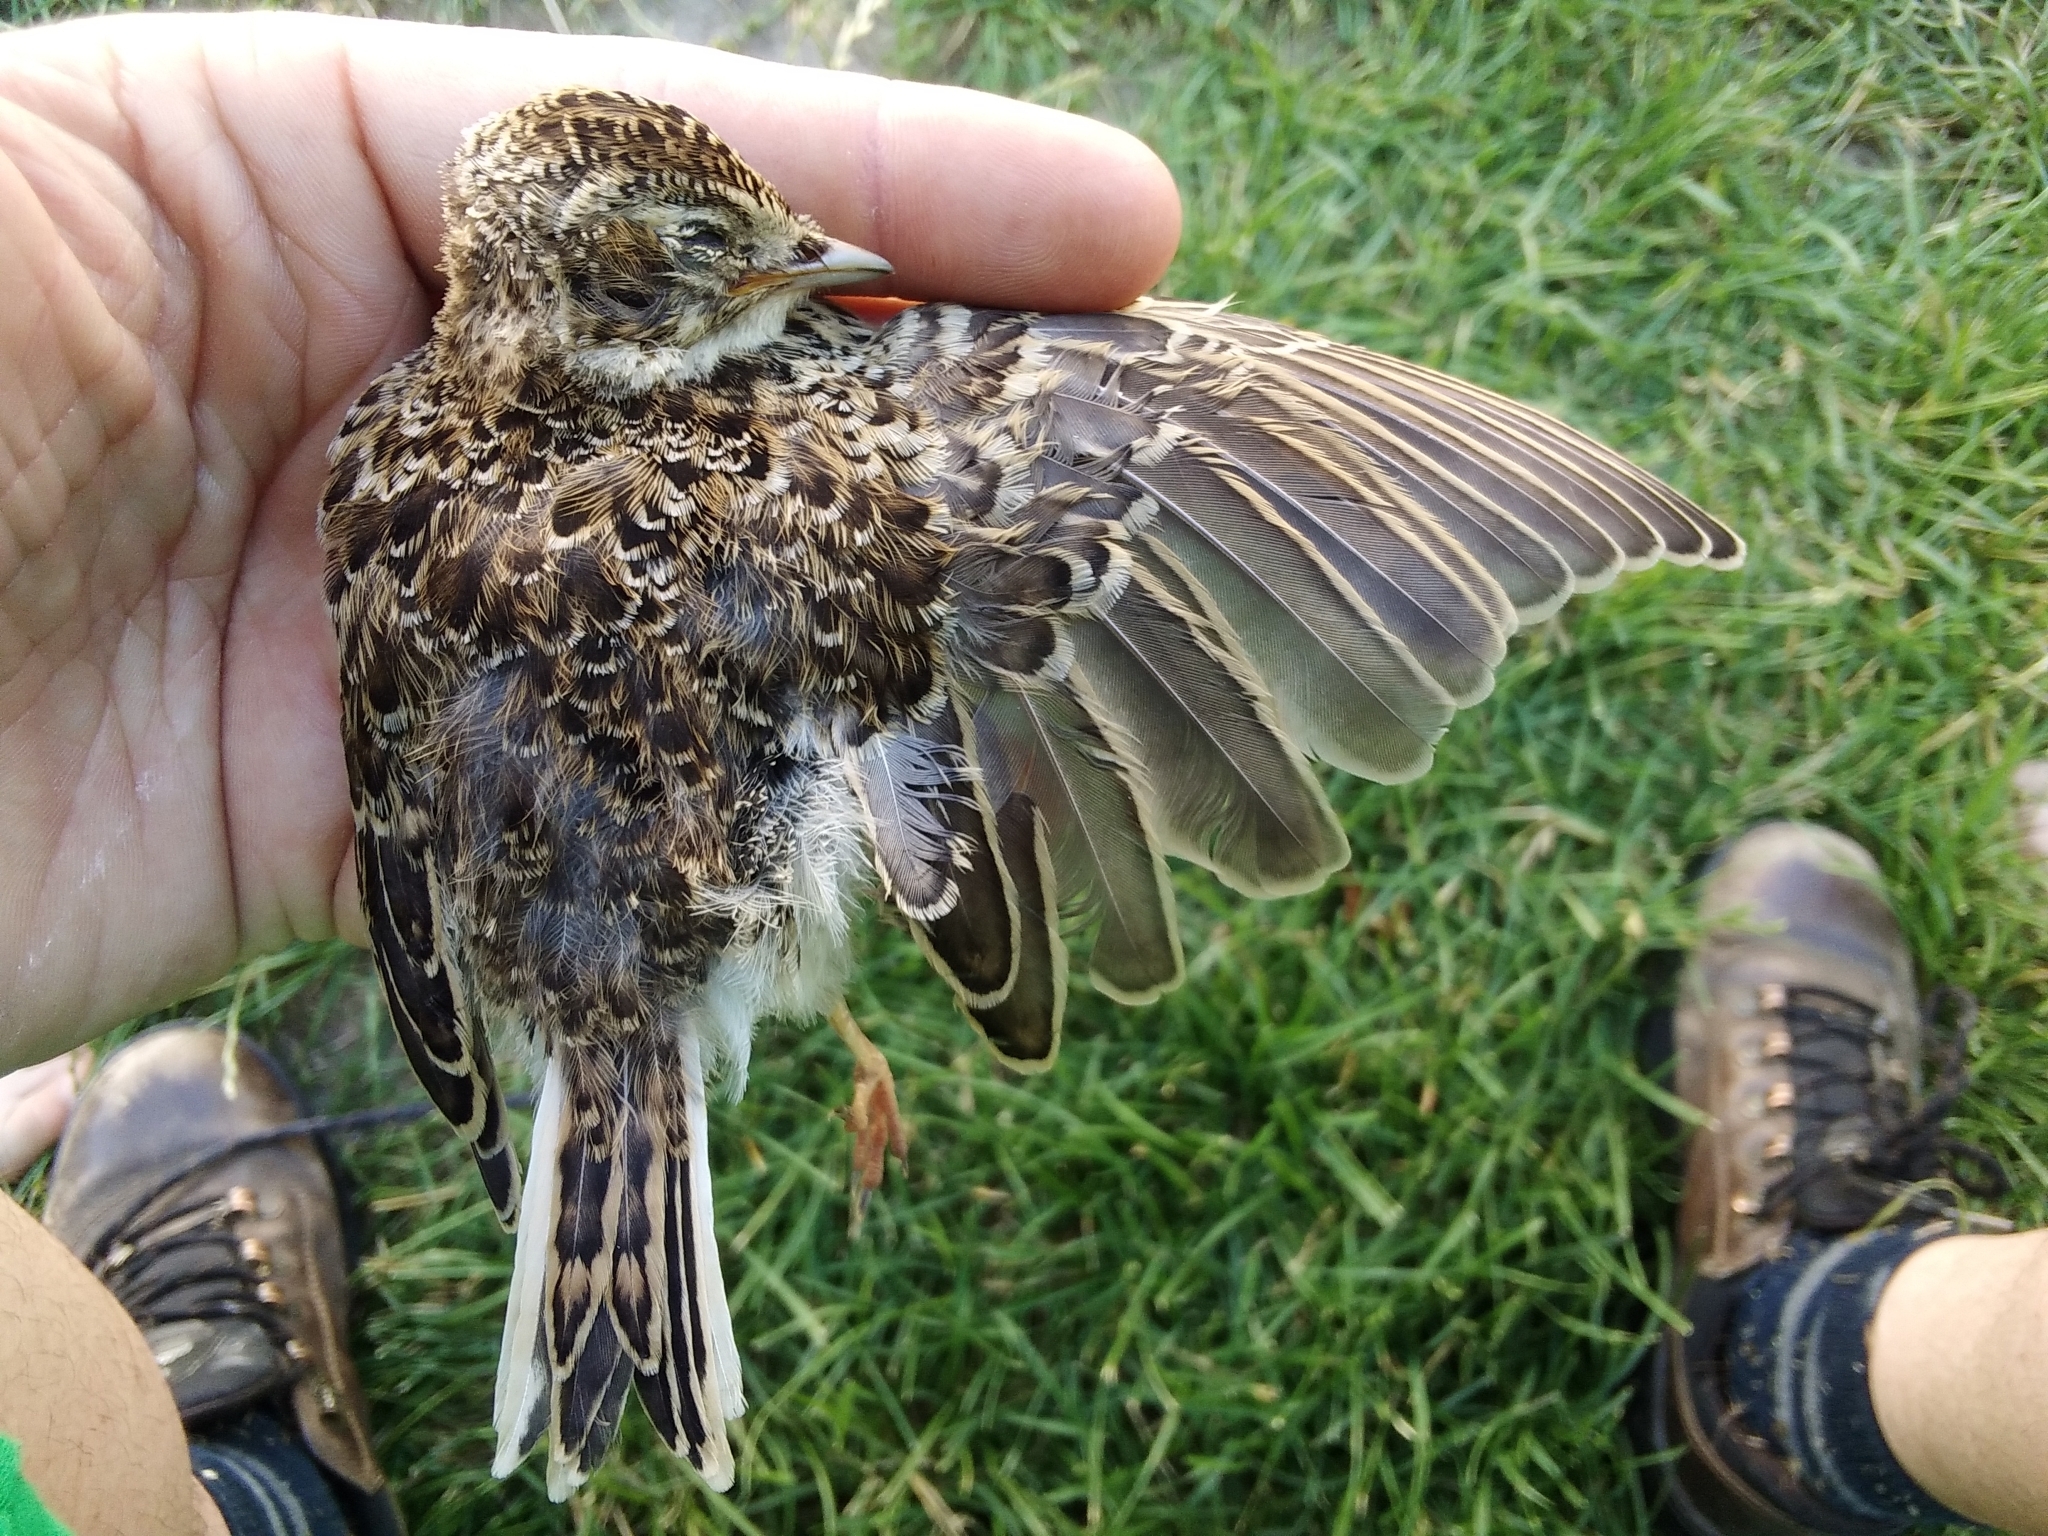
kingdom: Animalia
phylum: Chordata
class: Aves
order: Passeriformes
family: Alaudidae
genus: Alauda
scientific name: Alauda arvensis
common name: Eurasian skylark
